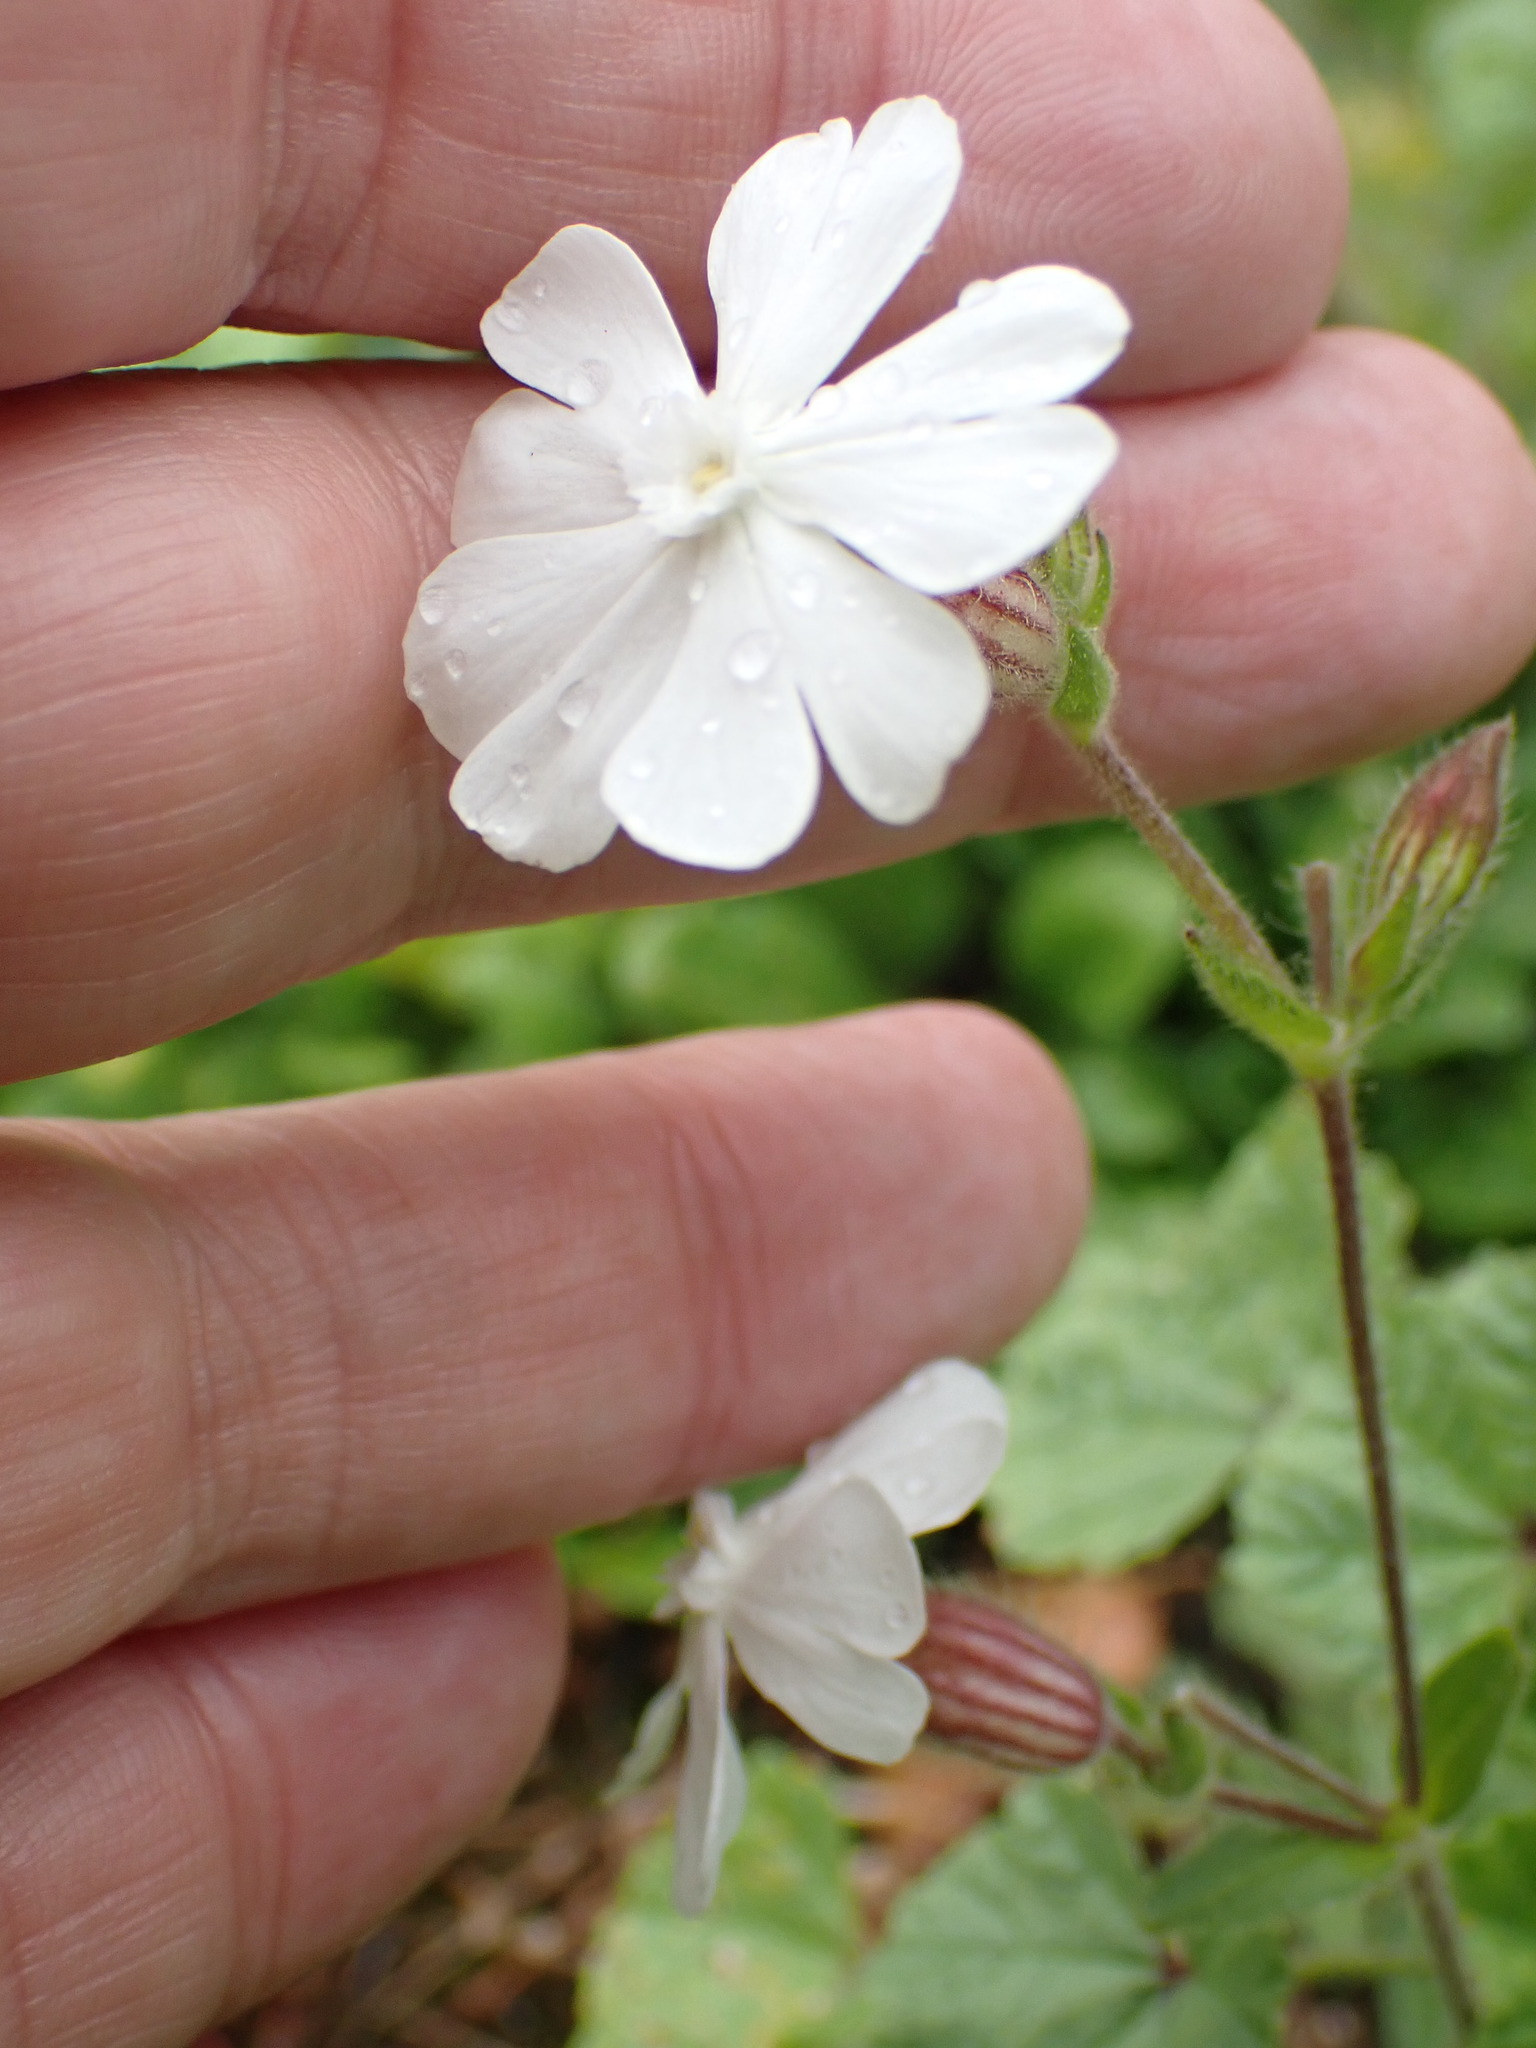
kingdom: Plantae
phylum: Tracheophyta
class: Magnoliopsida
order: Caryophyllales
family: Caryophyllaceae
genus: Silene
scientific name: Silene latifolia
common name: White campion
